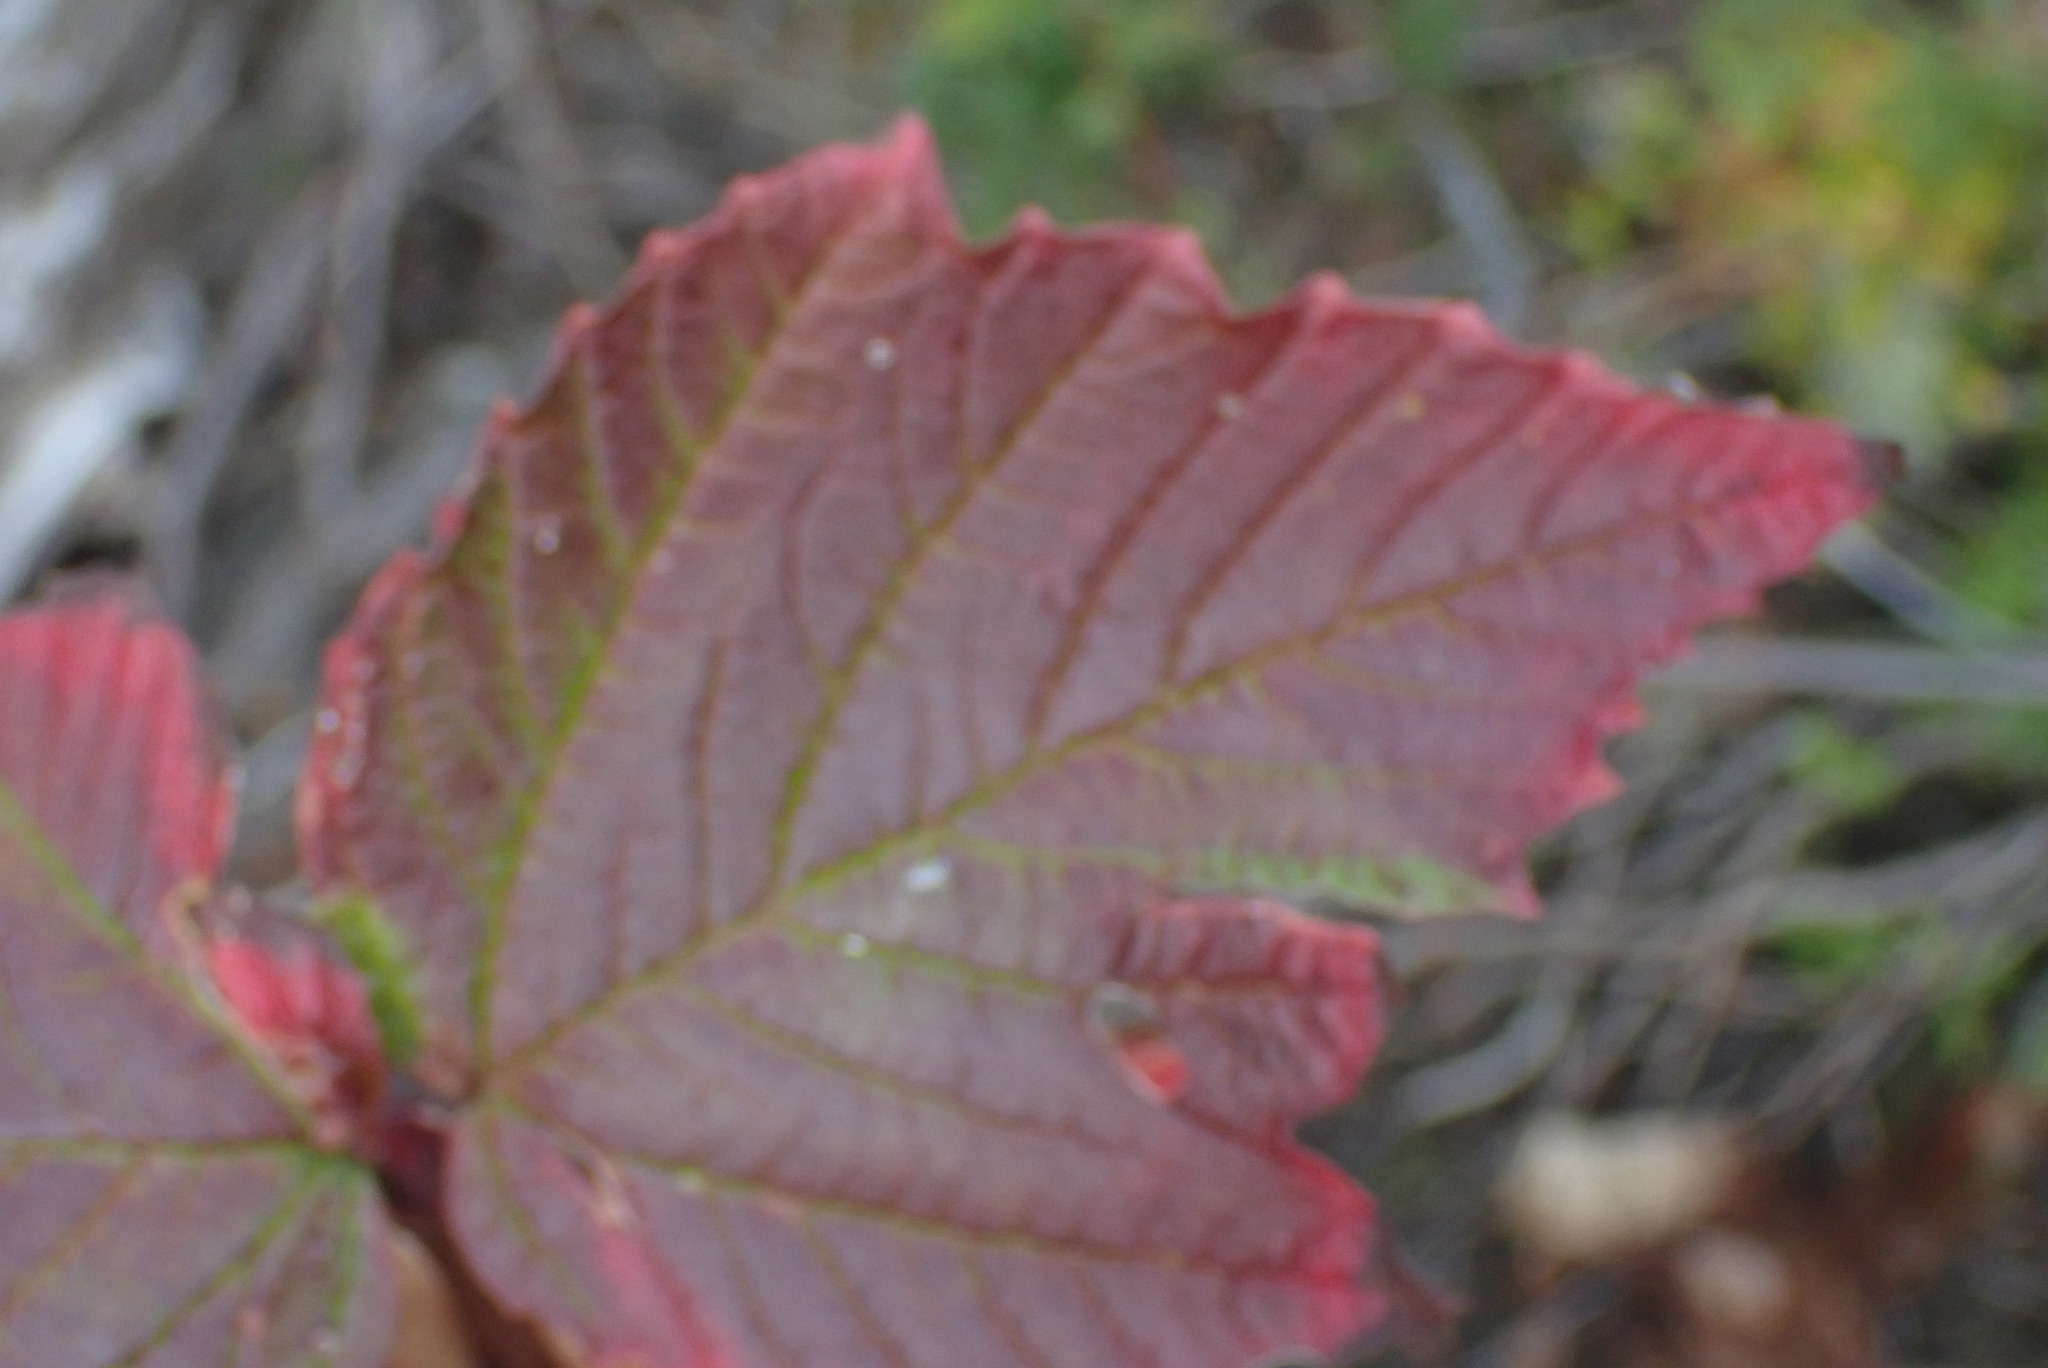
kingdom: Plantae
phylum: Tracheophyta
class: Magnoliopsida
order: Dipsacales
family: Viburnaceae
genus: Viburnum
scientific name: Viburnum edule
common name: Mooseberry
